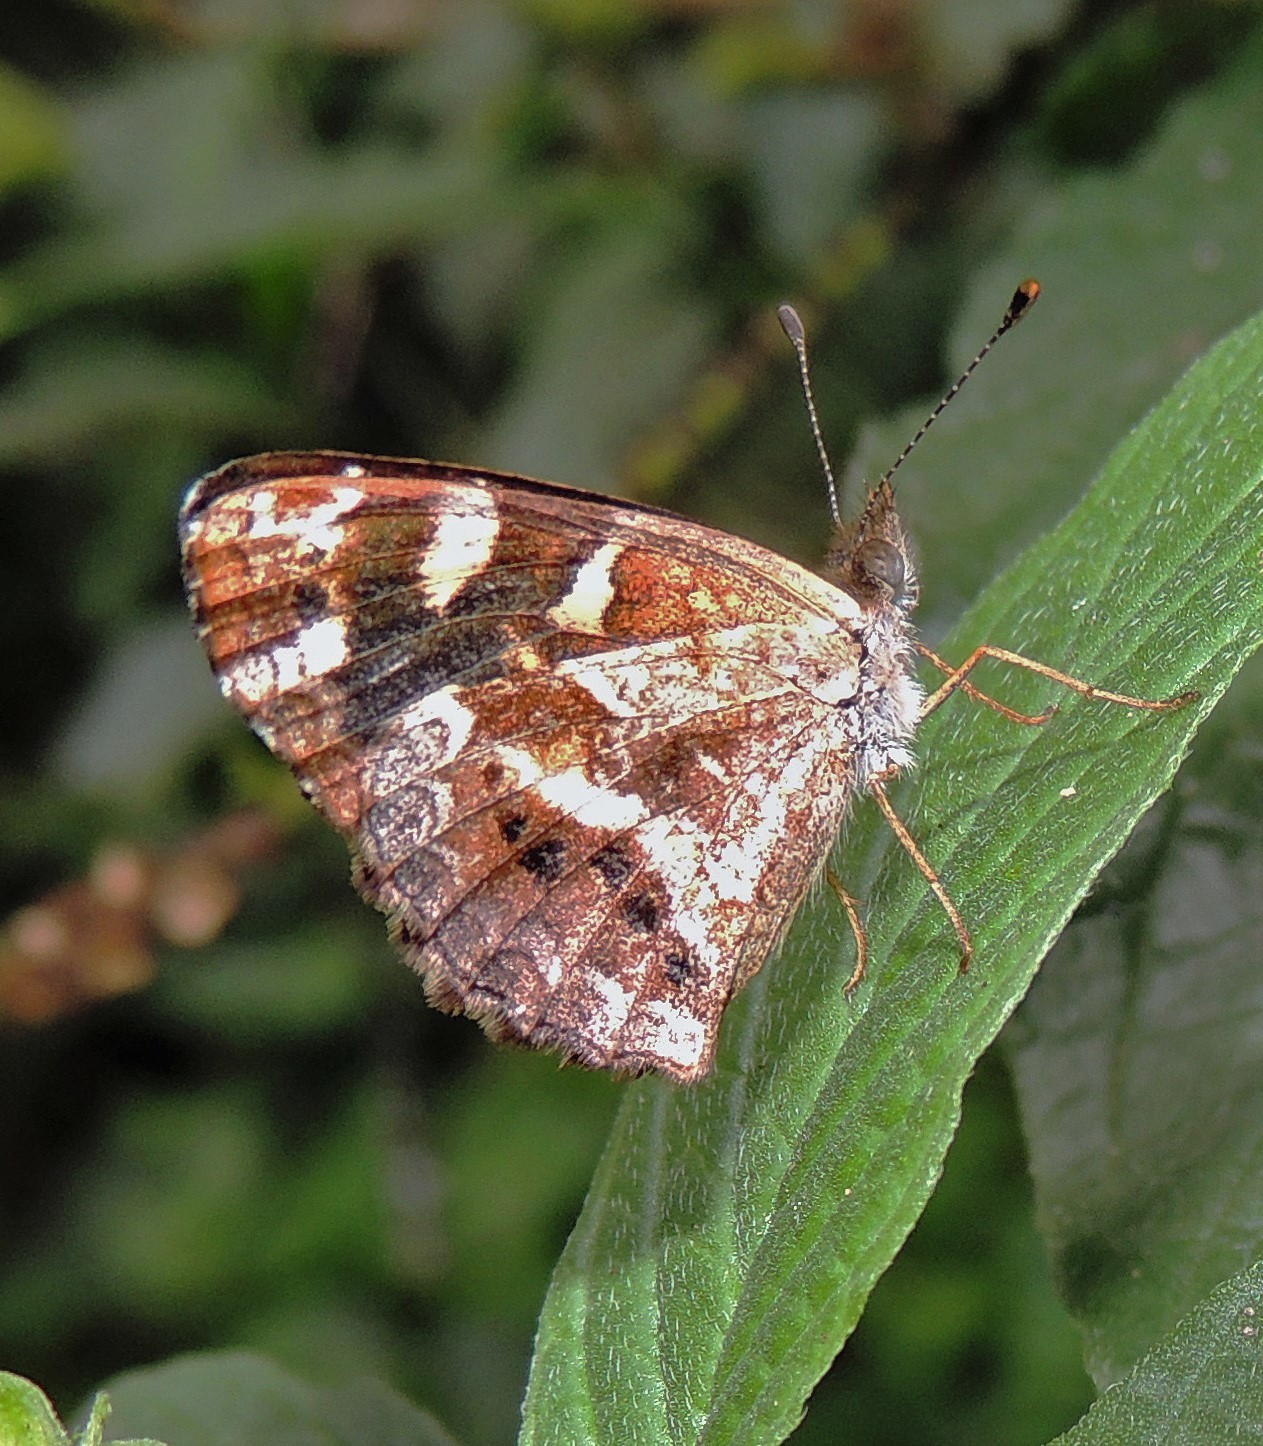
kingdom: Animalia
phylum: Arthropoda
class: Insecta
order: Lepidoptera
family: Nymphalidae
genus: Dagon
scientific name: Dagon catula
